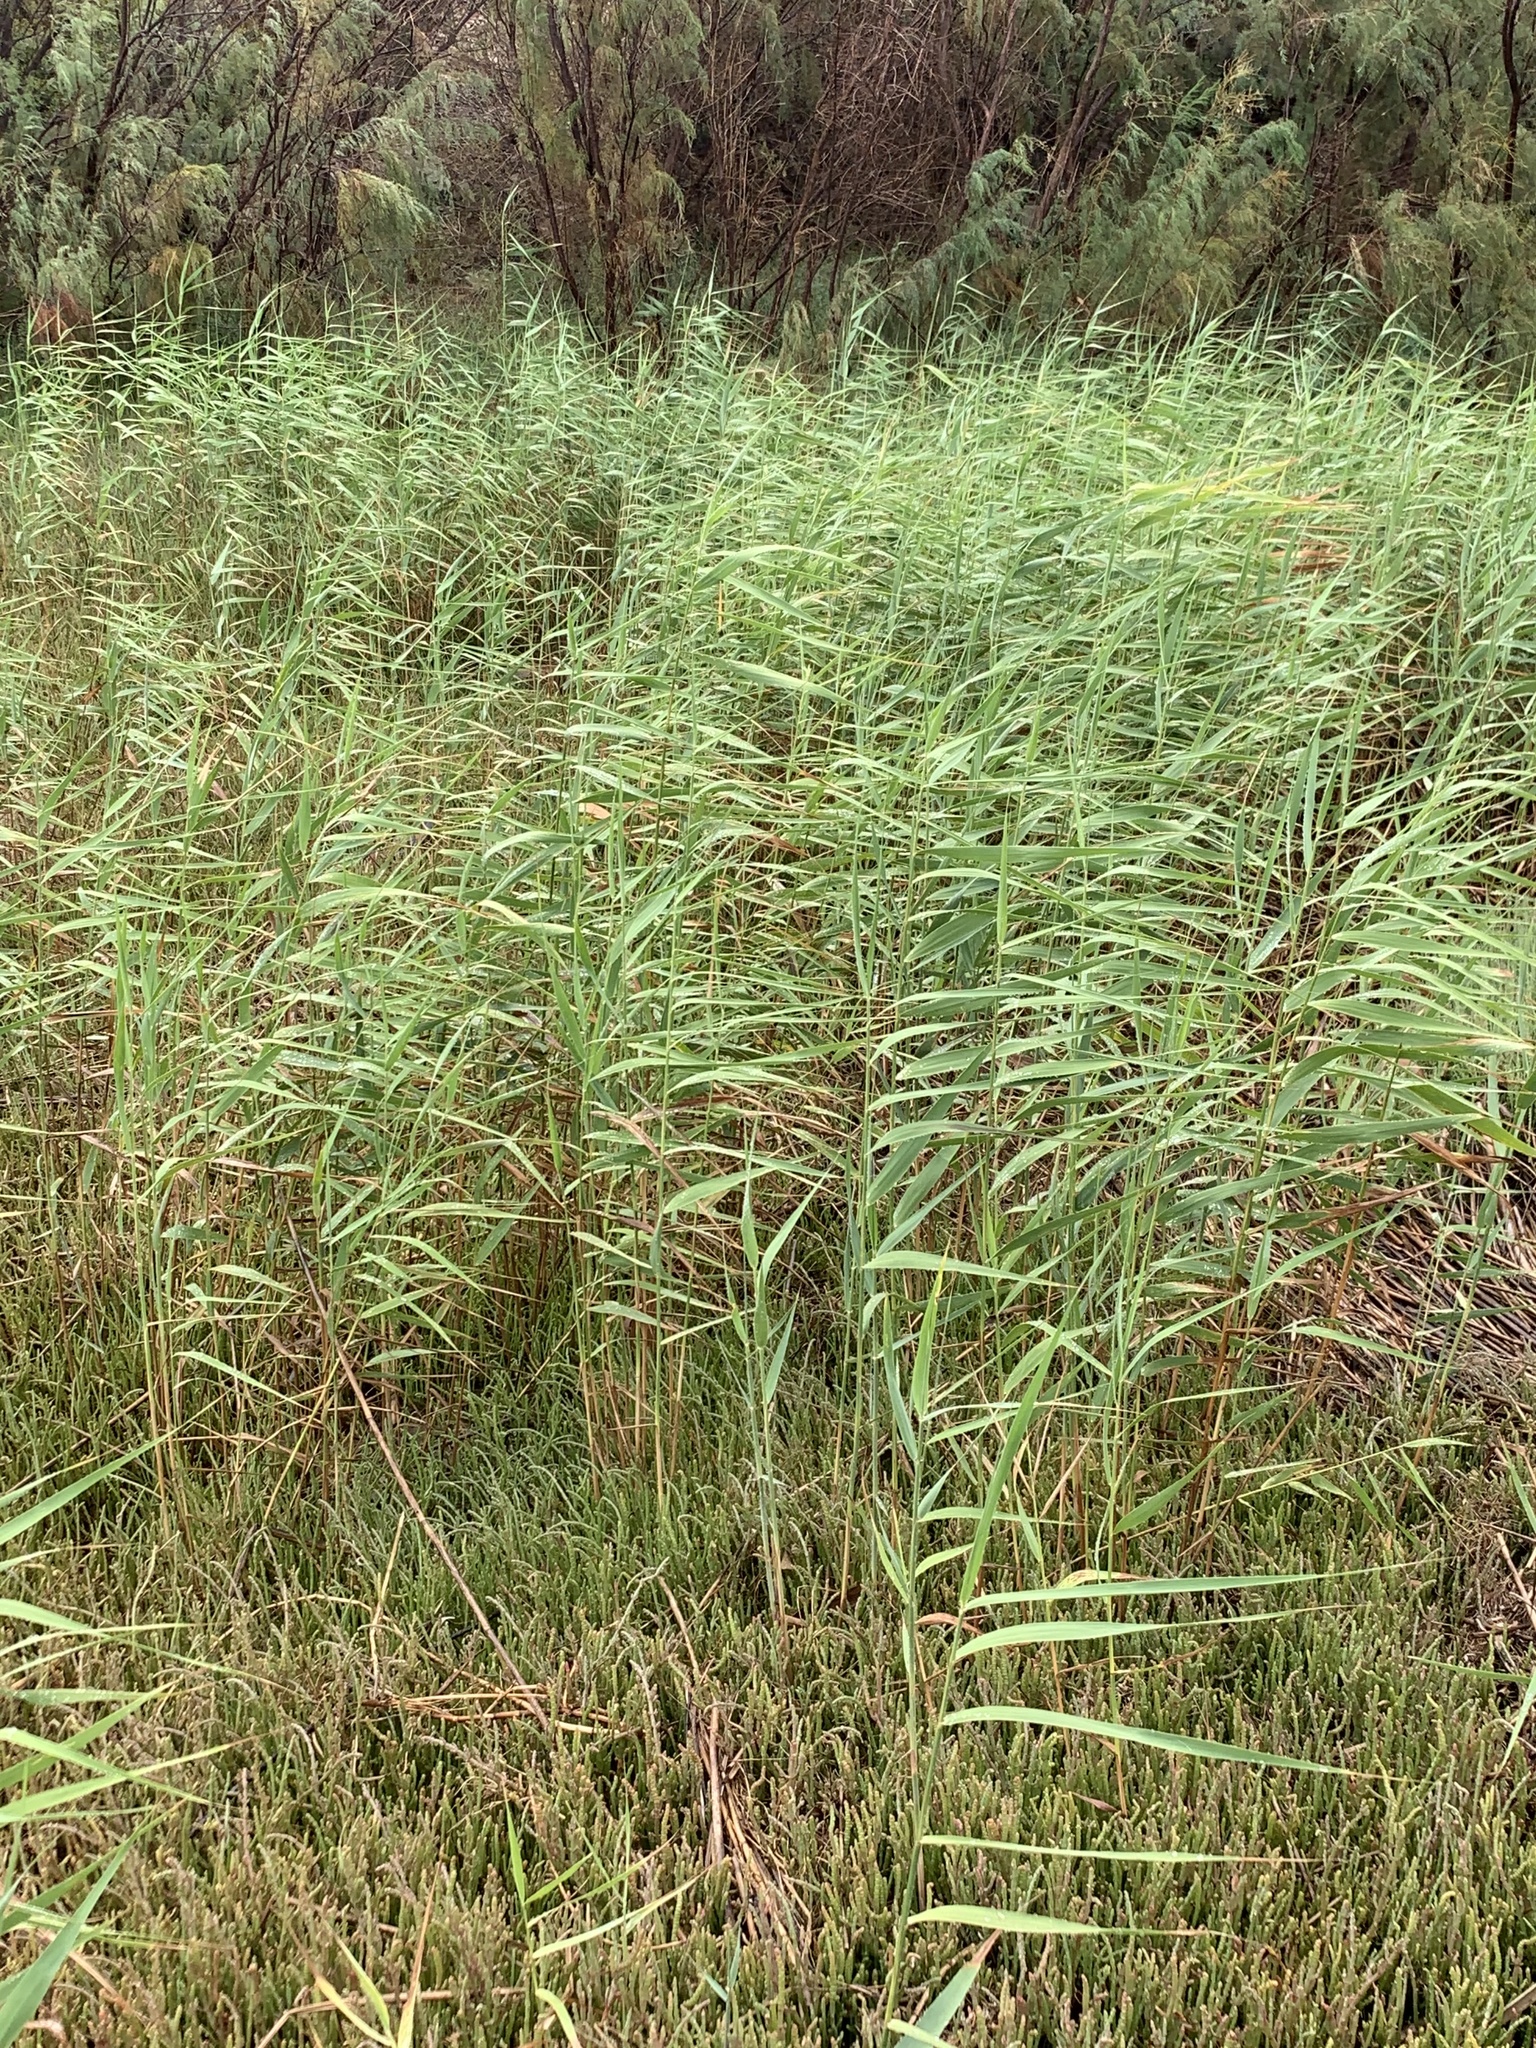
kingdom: Plantae
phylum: Tracheophyta
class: Liliopsida
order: Poales
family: Poaceae
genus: Phragmites
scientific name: Phragmites australis
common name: Common reed
